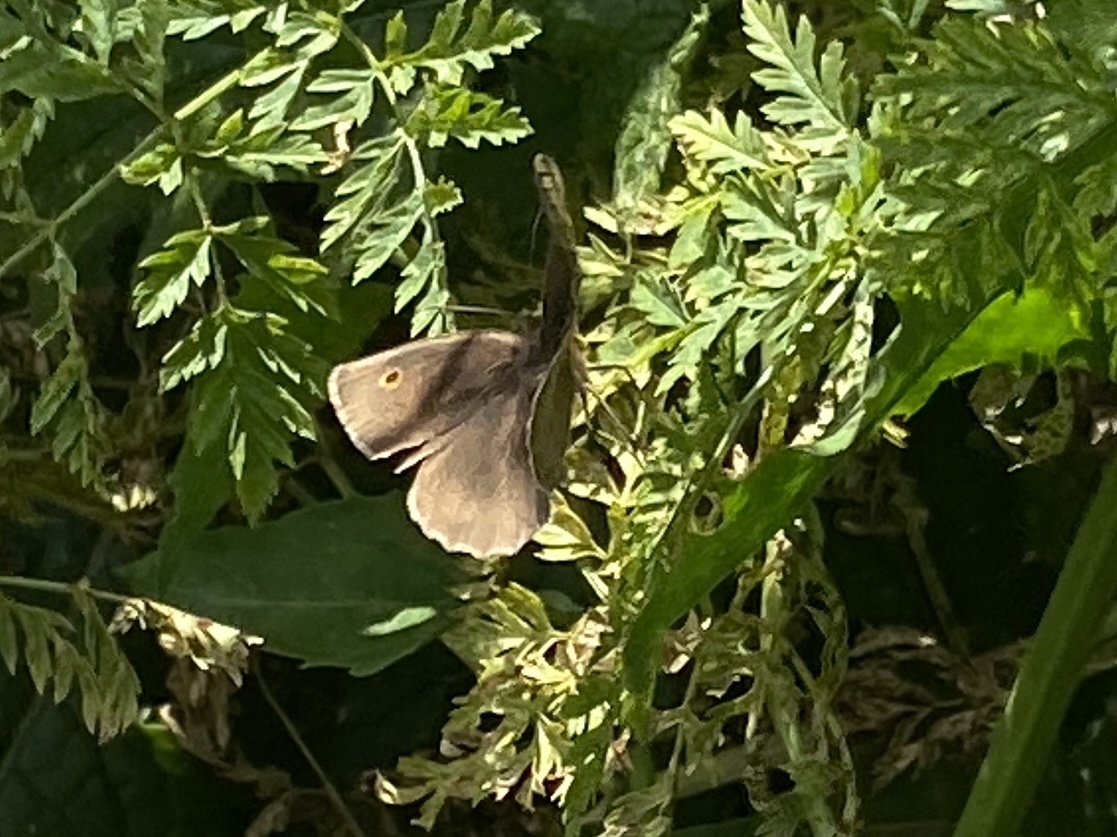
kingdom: Animalia
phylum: Arthropoda
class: Insecta
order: Lepidoptera
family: Nymphalidae
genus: Maniola
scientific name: Maniola jurtina
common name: Meadow brown
